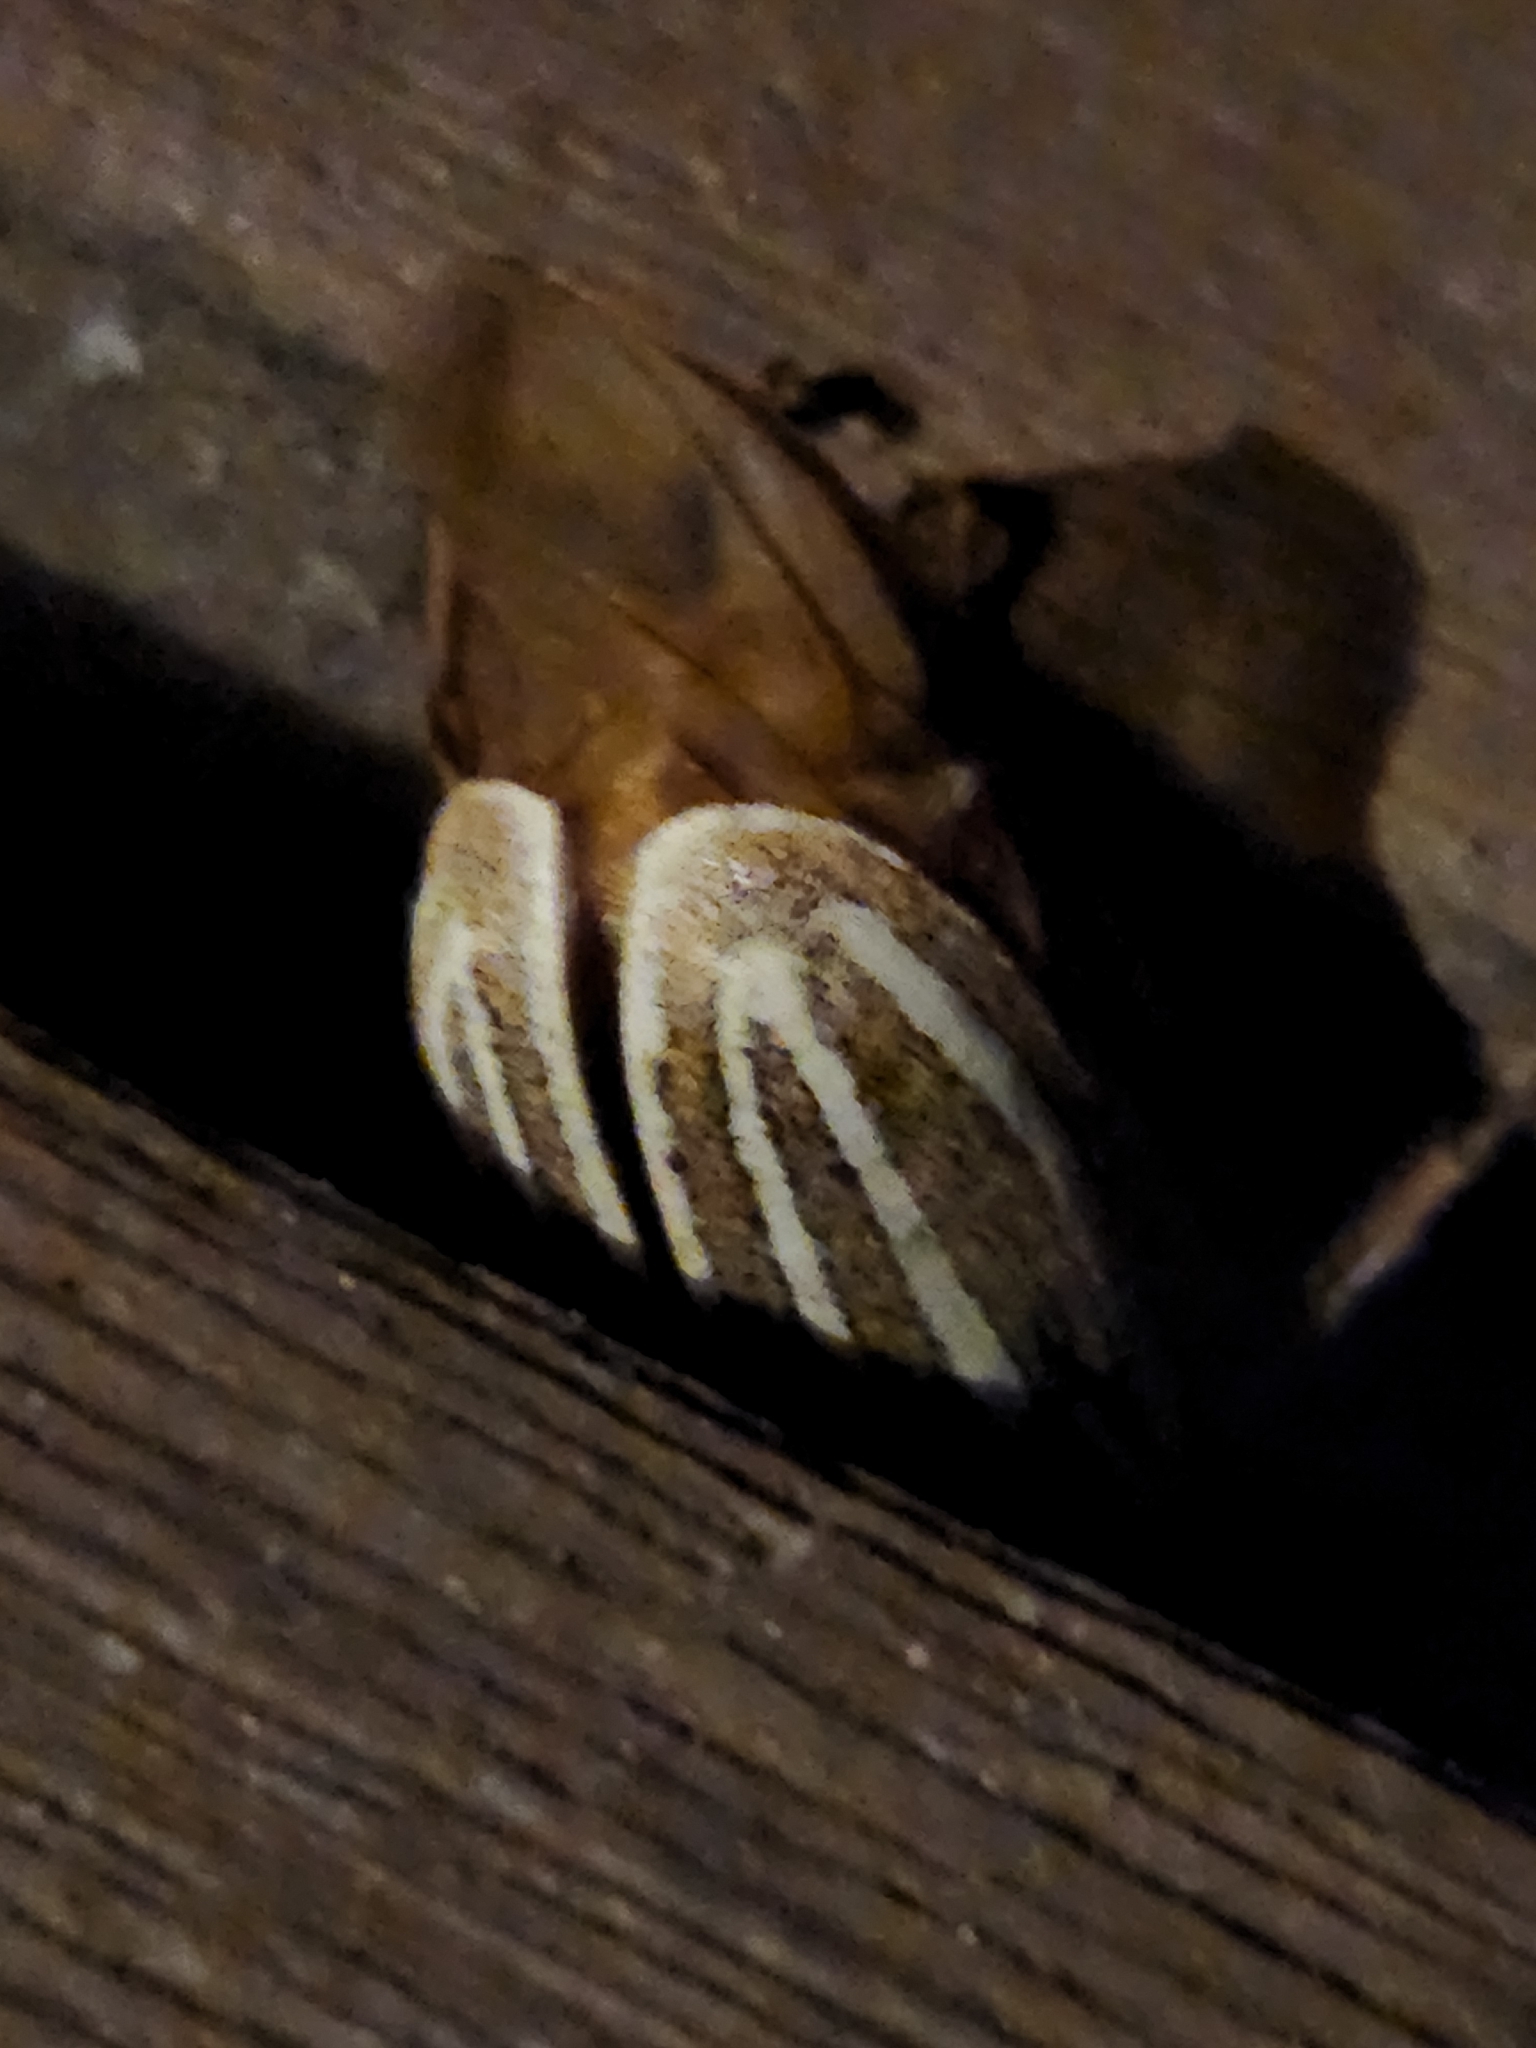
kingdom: Animalia
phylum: Arthropoda
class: Insecta
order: Coleoptera
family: Scarabaeidae
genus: Polyphylla
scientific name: Polyphylla decemlineata
